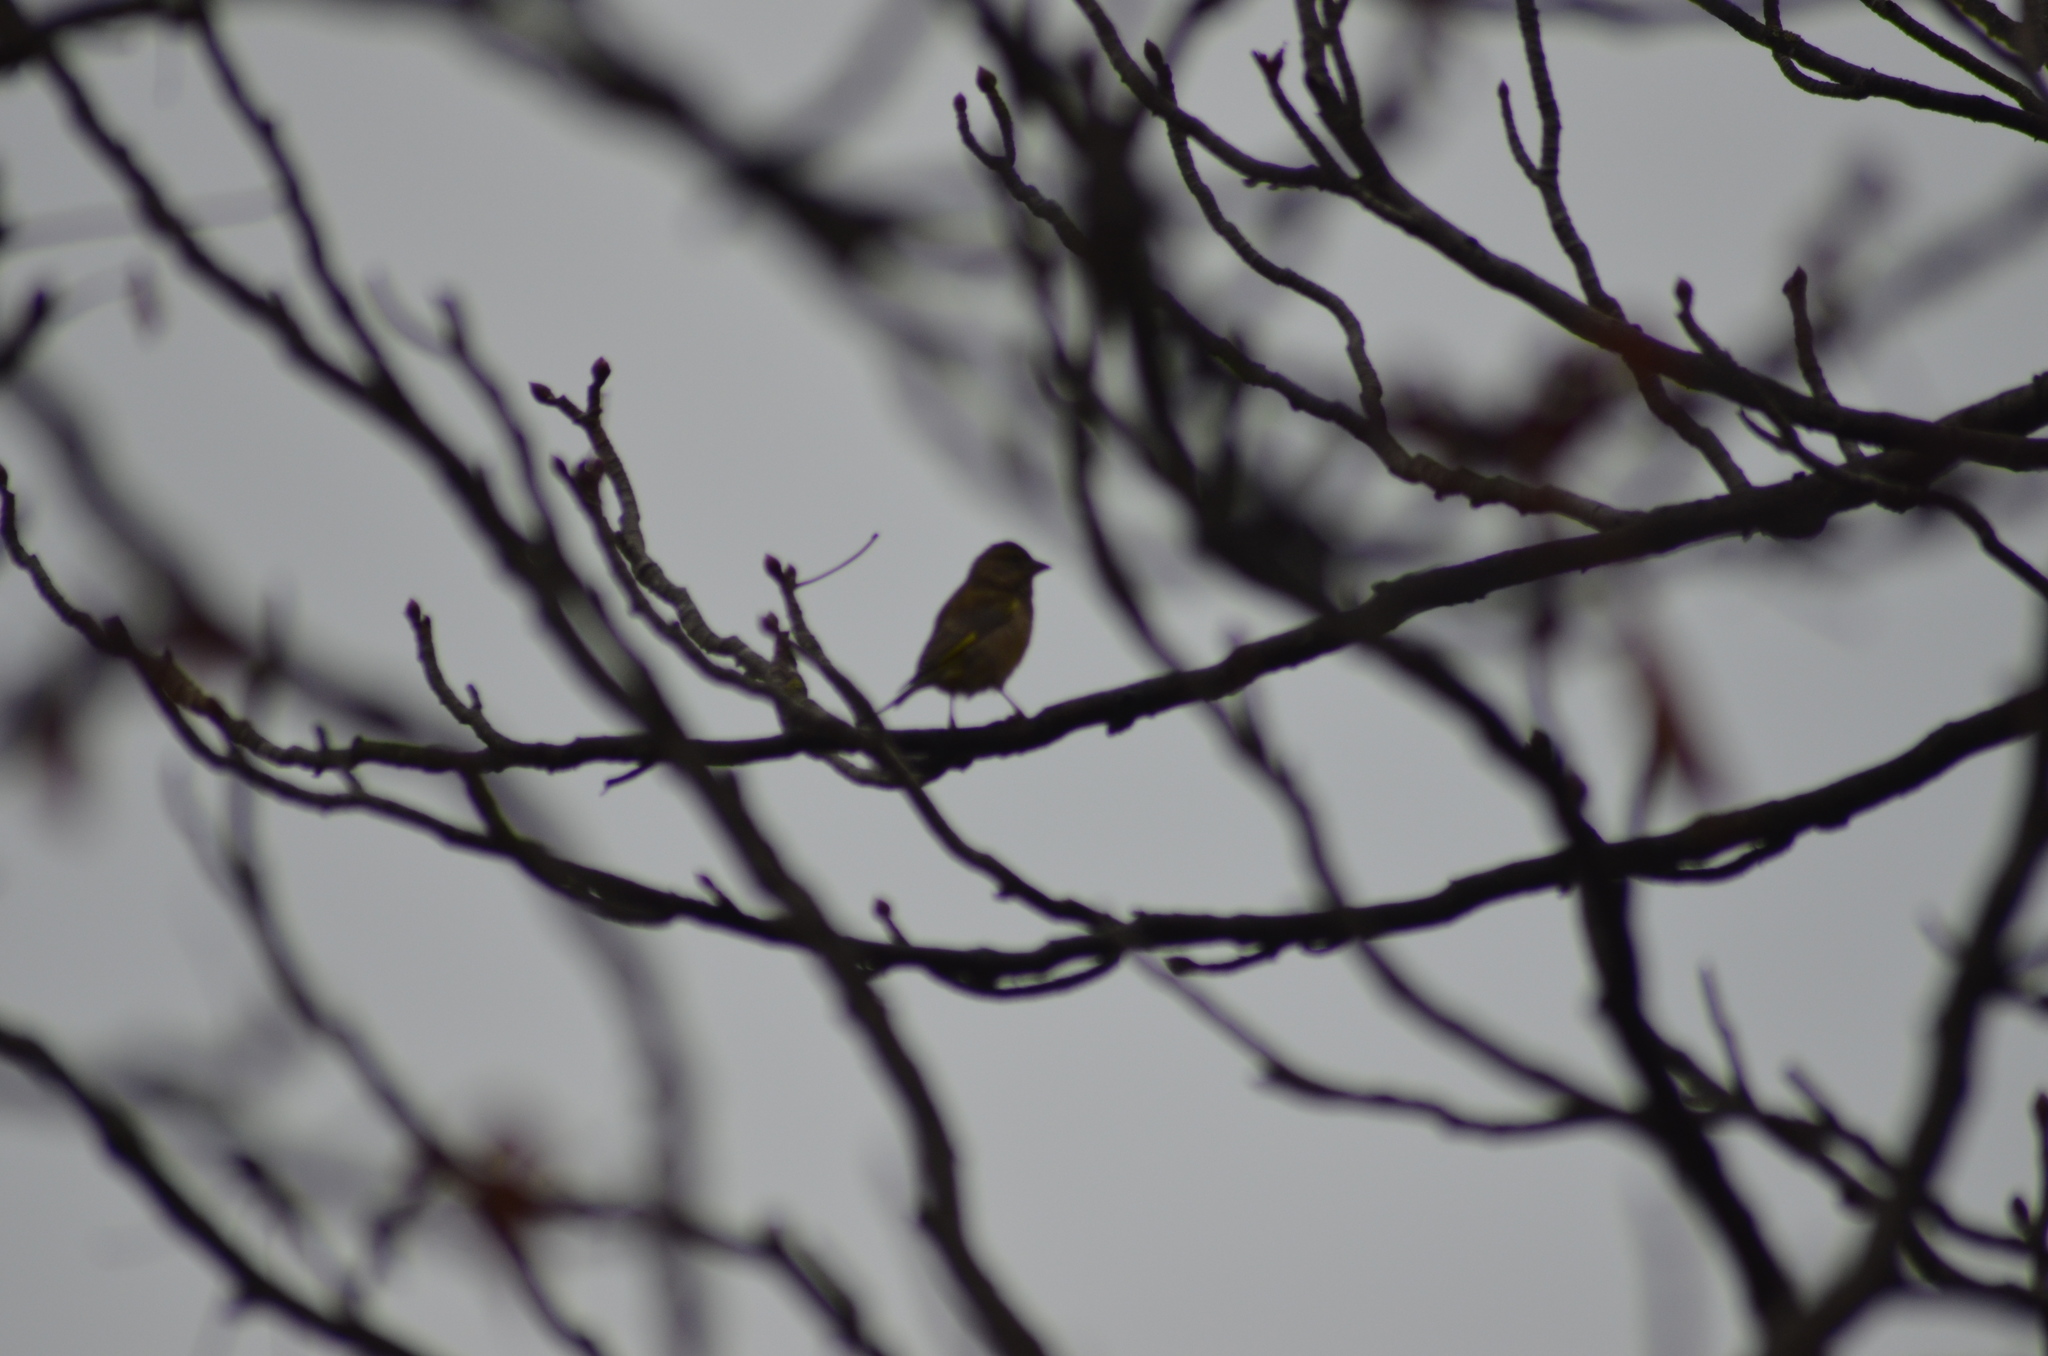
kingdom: Plantae
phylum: Tracheophyta
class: Liliopsida
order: Poales
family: Poaceae
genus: Chloris
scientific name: Chloris chloris
